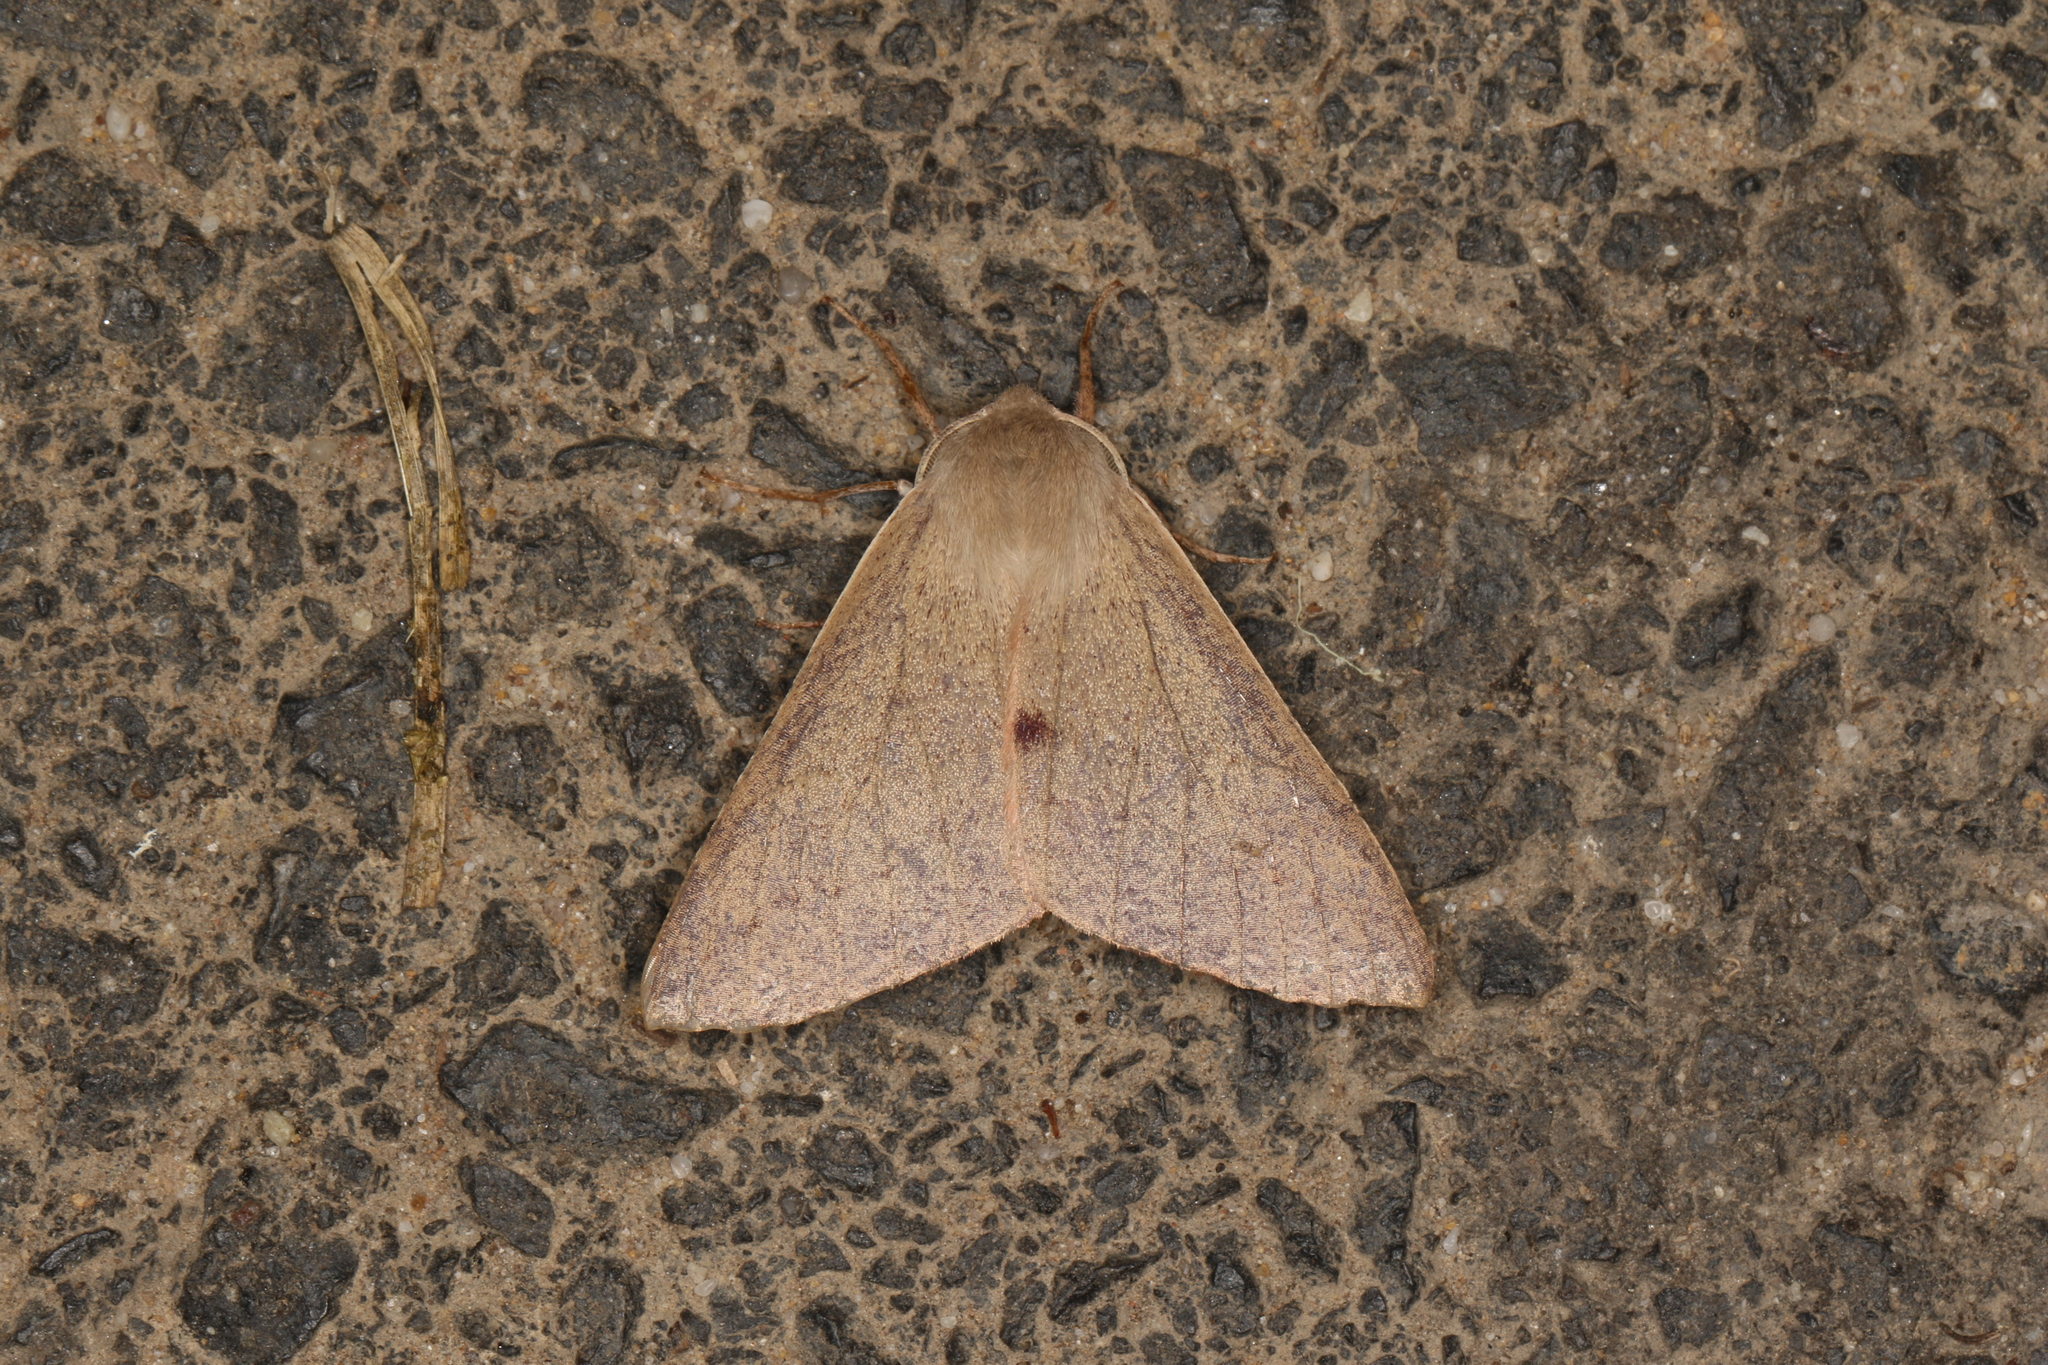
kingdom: Animalia
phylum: Arthropoda
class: Insecta
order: Lepidoptera
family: Geometridae
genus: Arhodia
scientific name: Arhodia lasiocamparia
